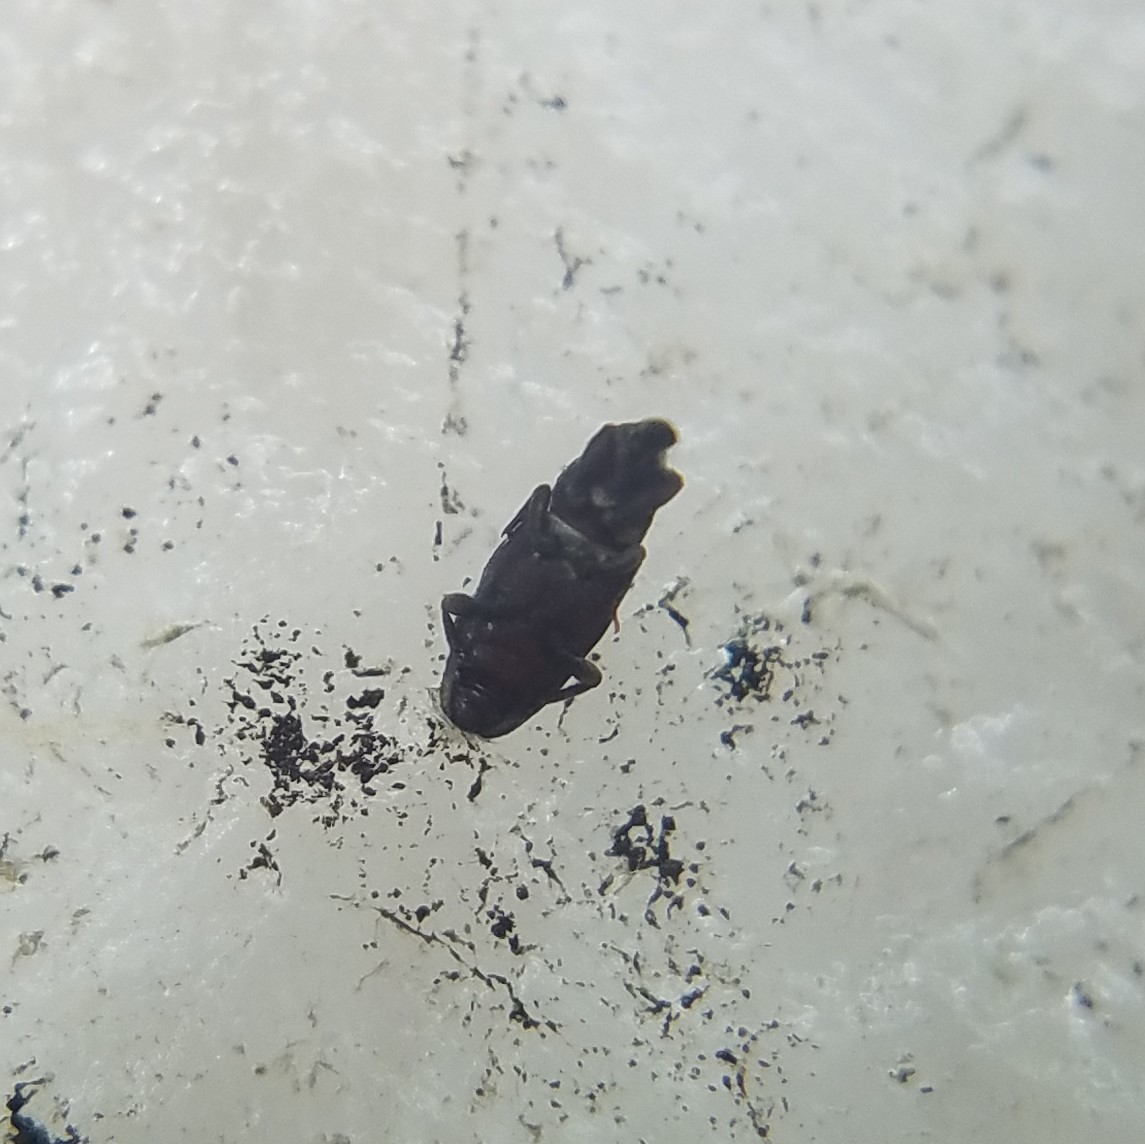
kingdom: Animalia
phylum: Arthropoda
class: Insecta
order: Coleoptera
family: Dryophthoridae
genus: Dryophthorus
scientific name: Dryophthorus americanus
